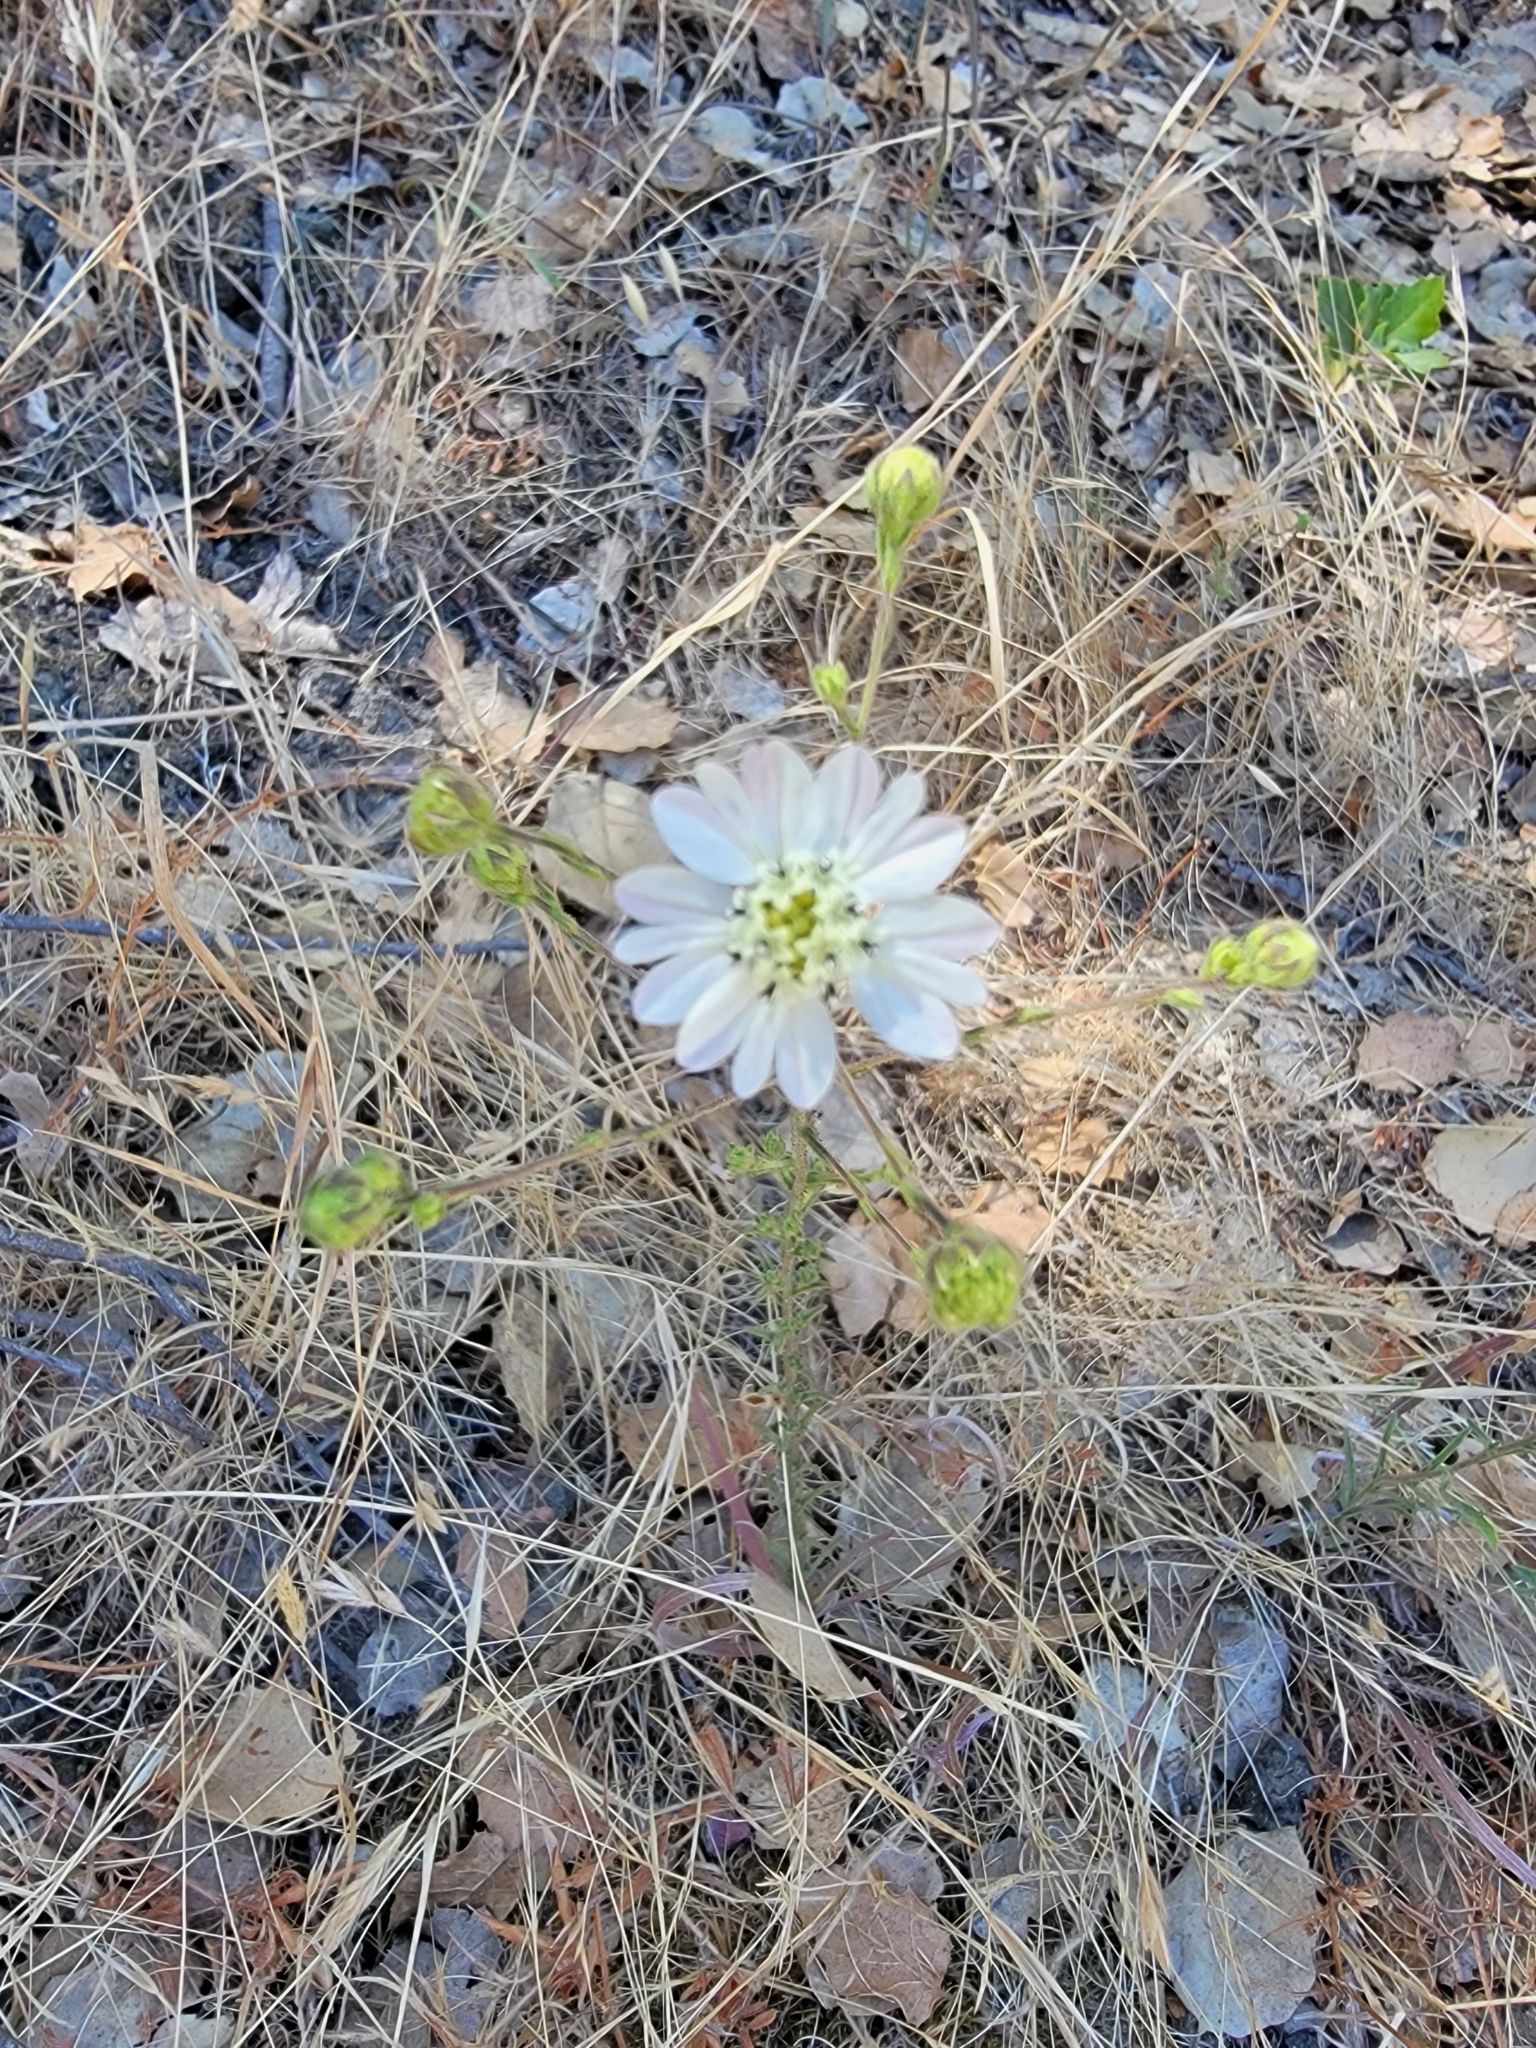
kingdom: Plantae
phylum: Tracheophyta
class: Magnoliopsida
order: Asterales
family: Asteraceae
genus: Hemizonia
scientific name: Hemizonia congesta
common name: Hayfield tarweed
